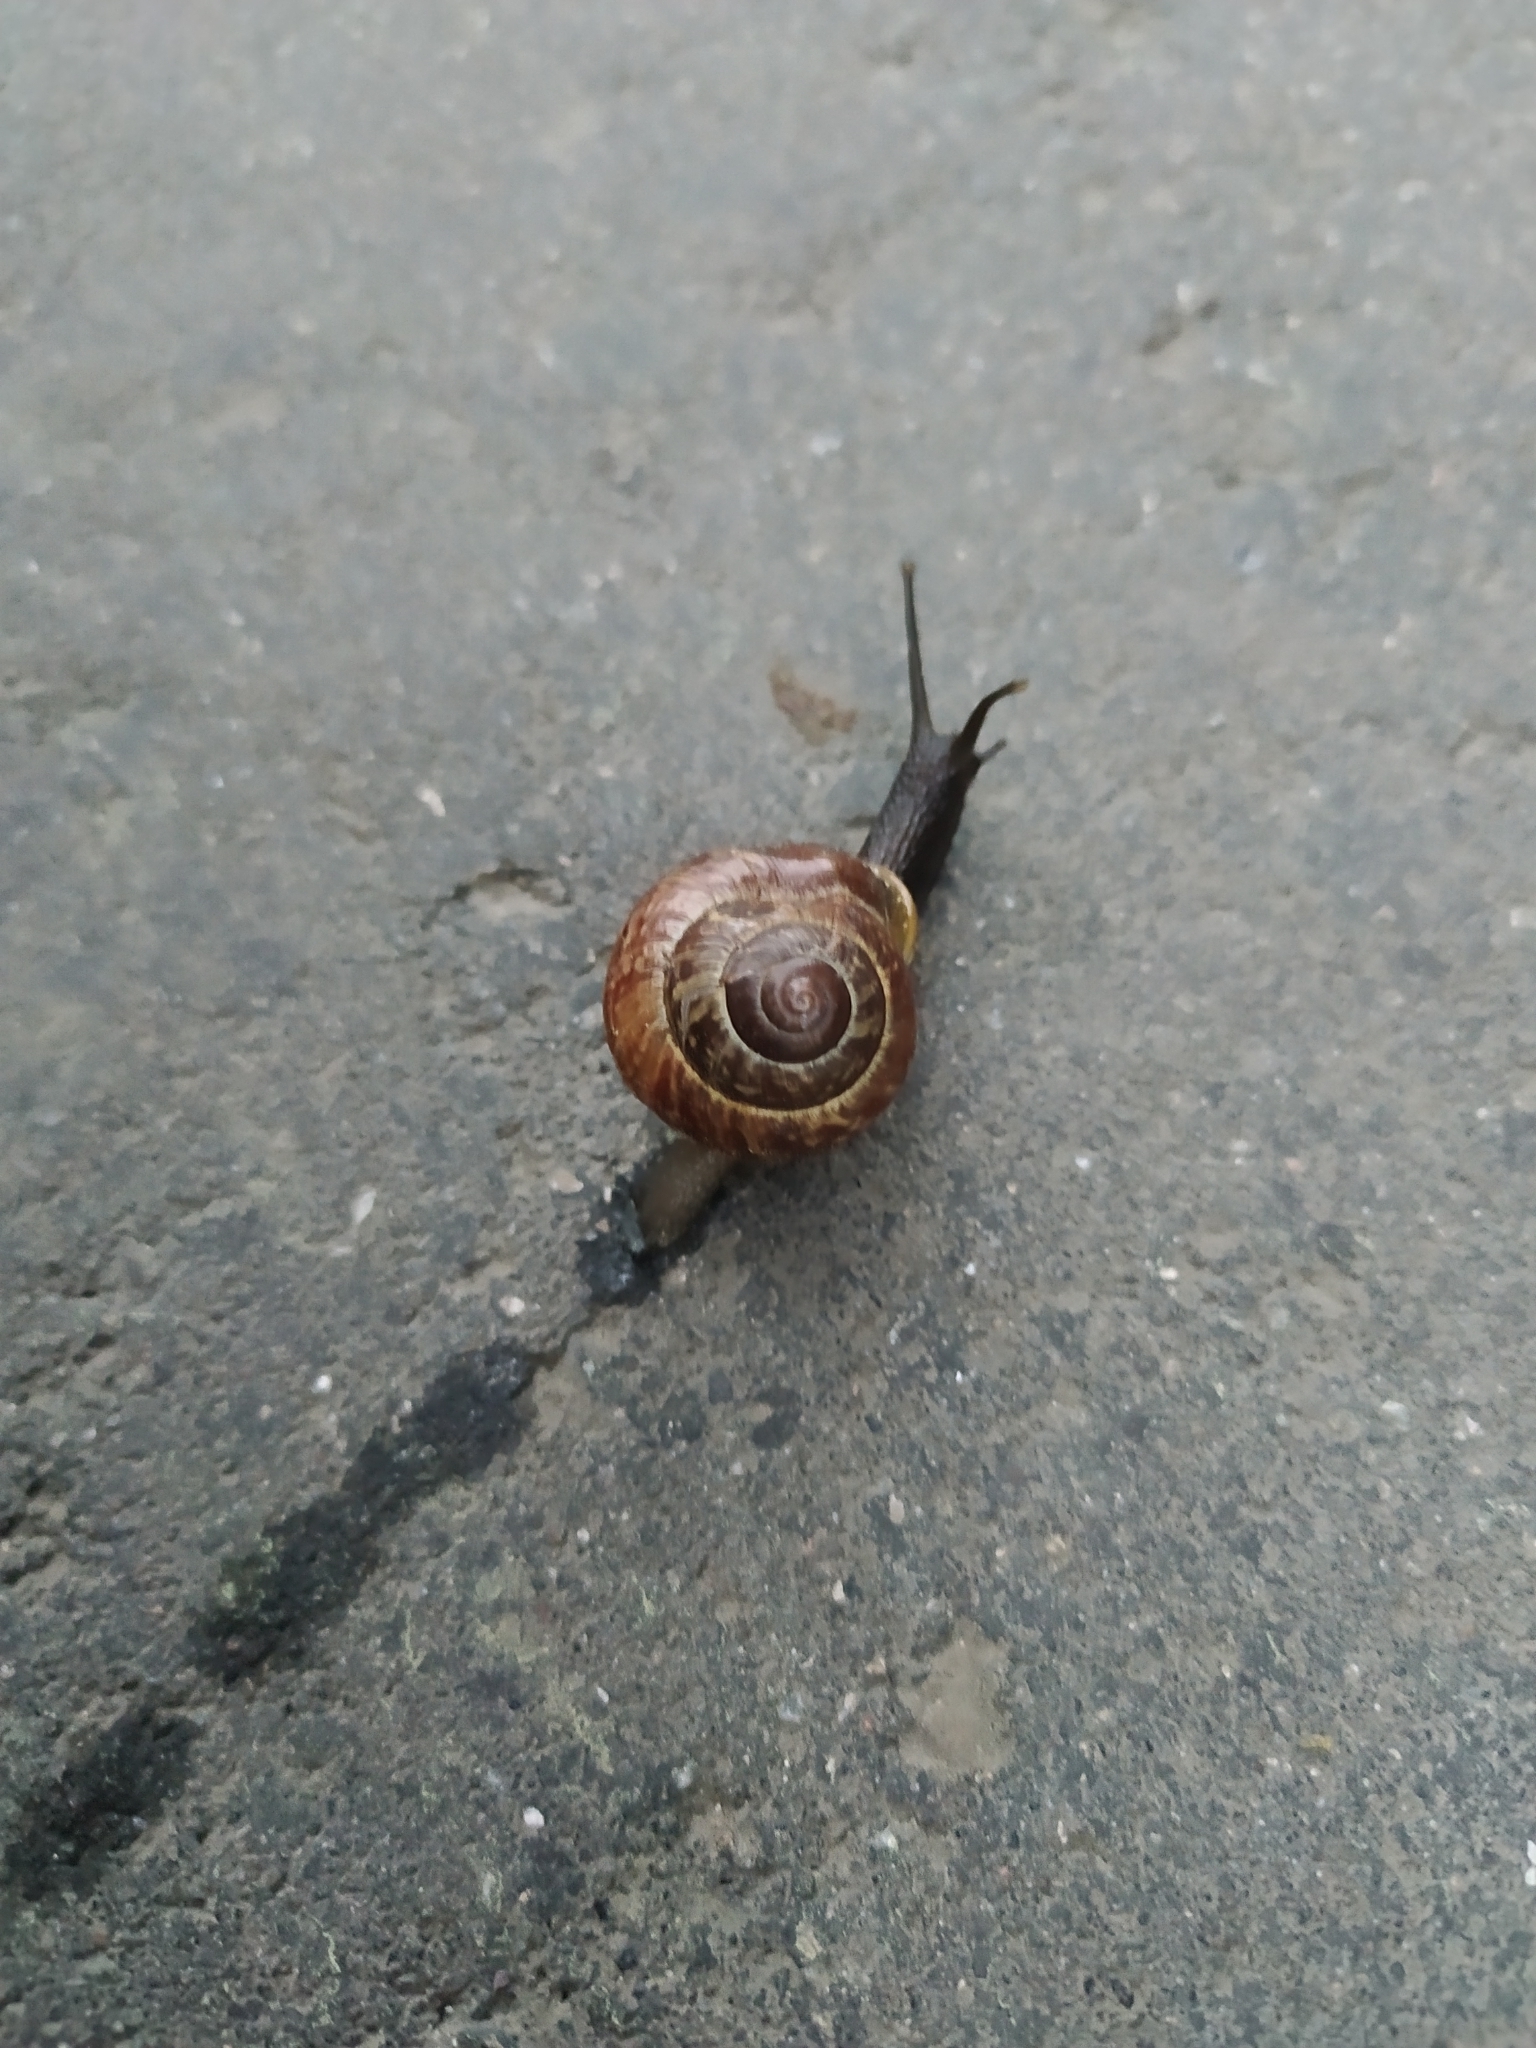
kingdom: Animalia
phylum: Mollusca
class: Gastropoda
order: Stylommatophora
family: Helicidae
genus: Arianta
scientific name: Arianta arbustorum
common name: Copse snail
